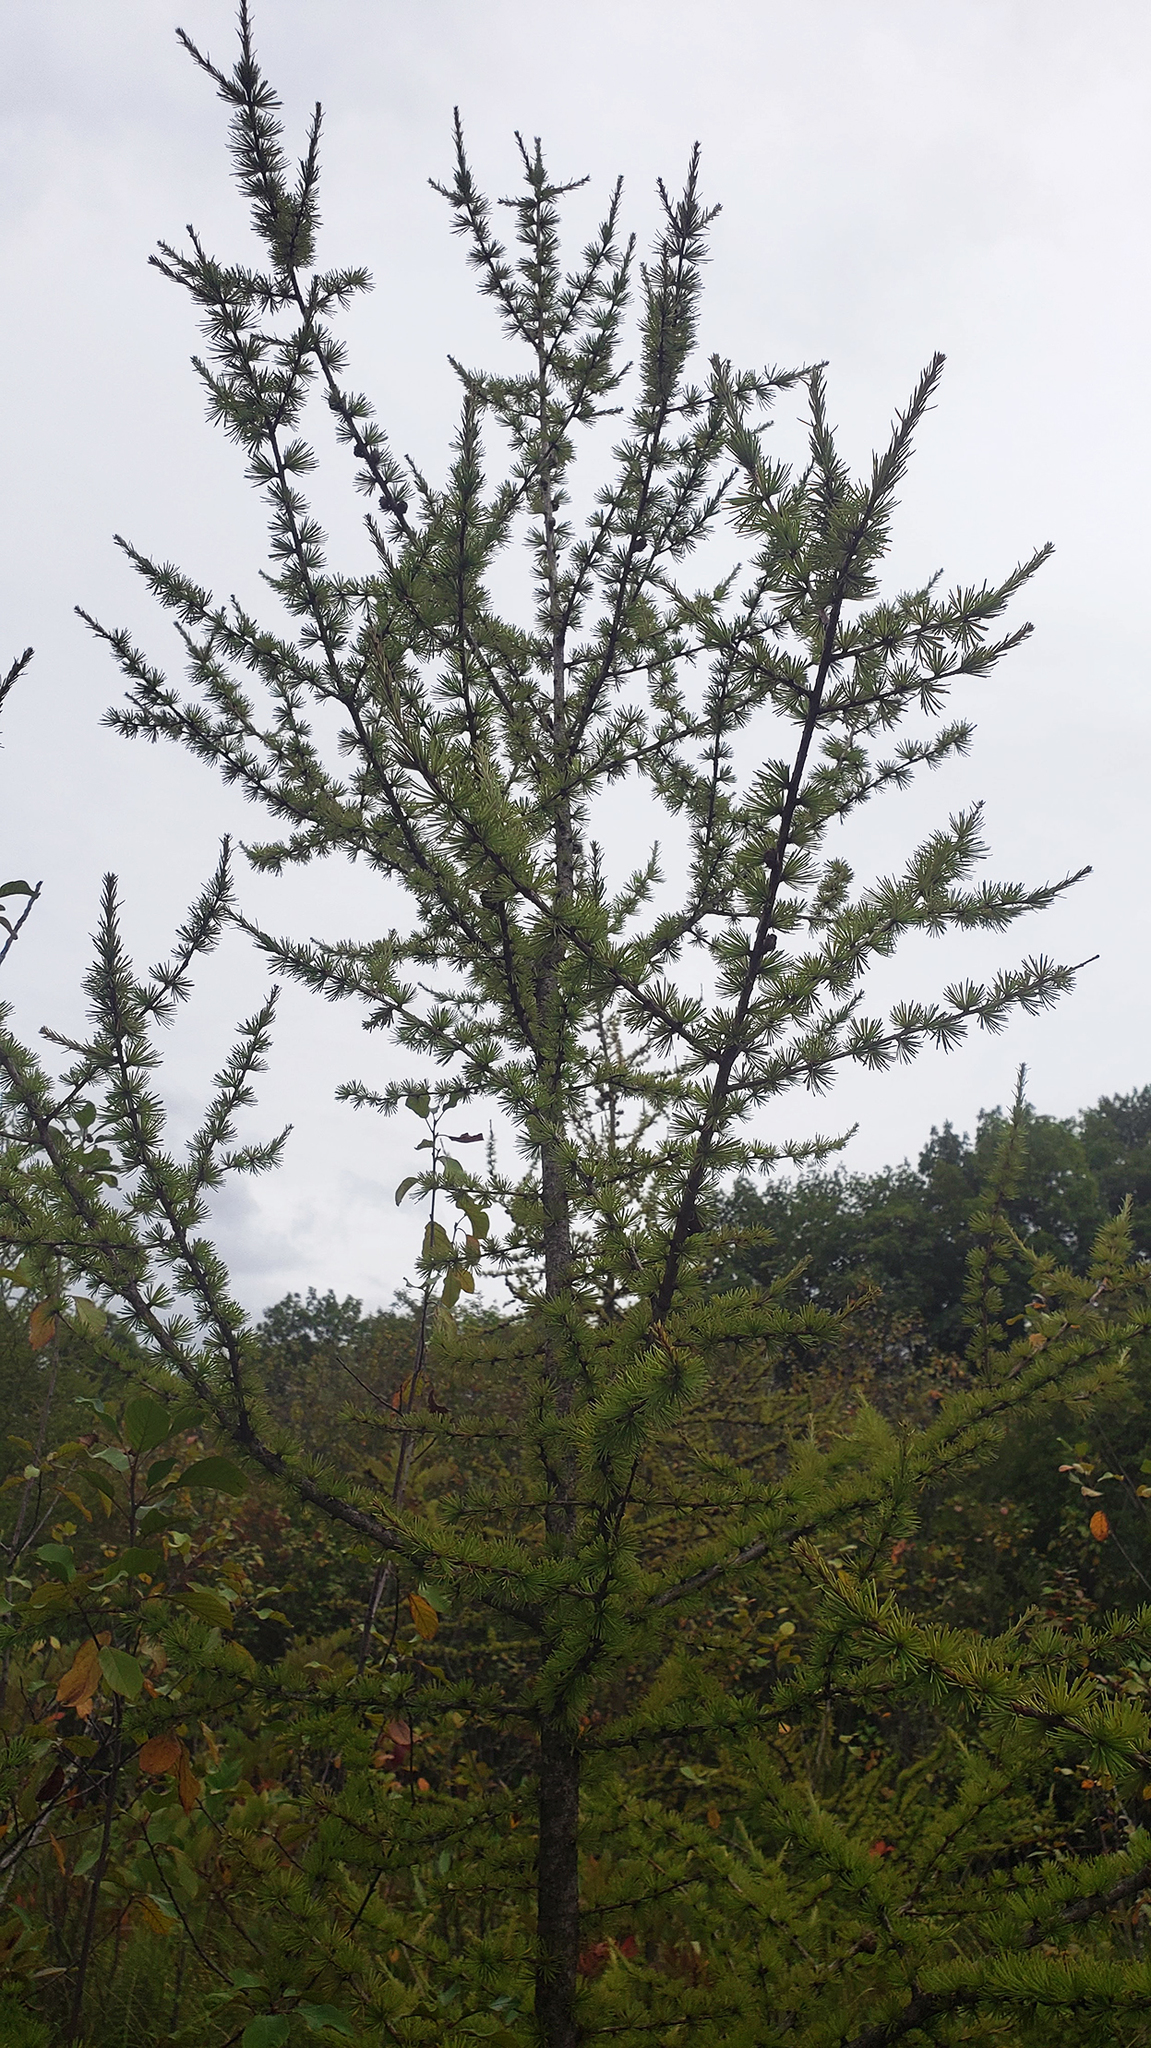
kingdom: Plantae
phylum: Tracheophyta
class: Pinopsida
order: Pinales
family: Pinaceae
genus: Larix
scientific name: Larix laricina
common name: American larch
